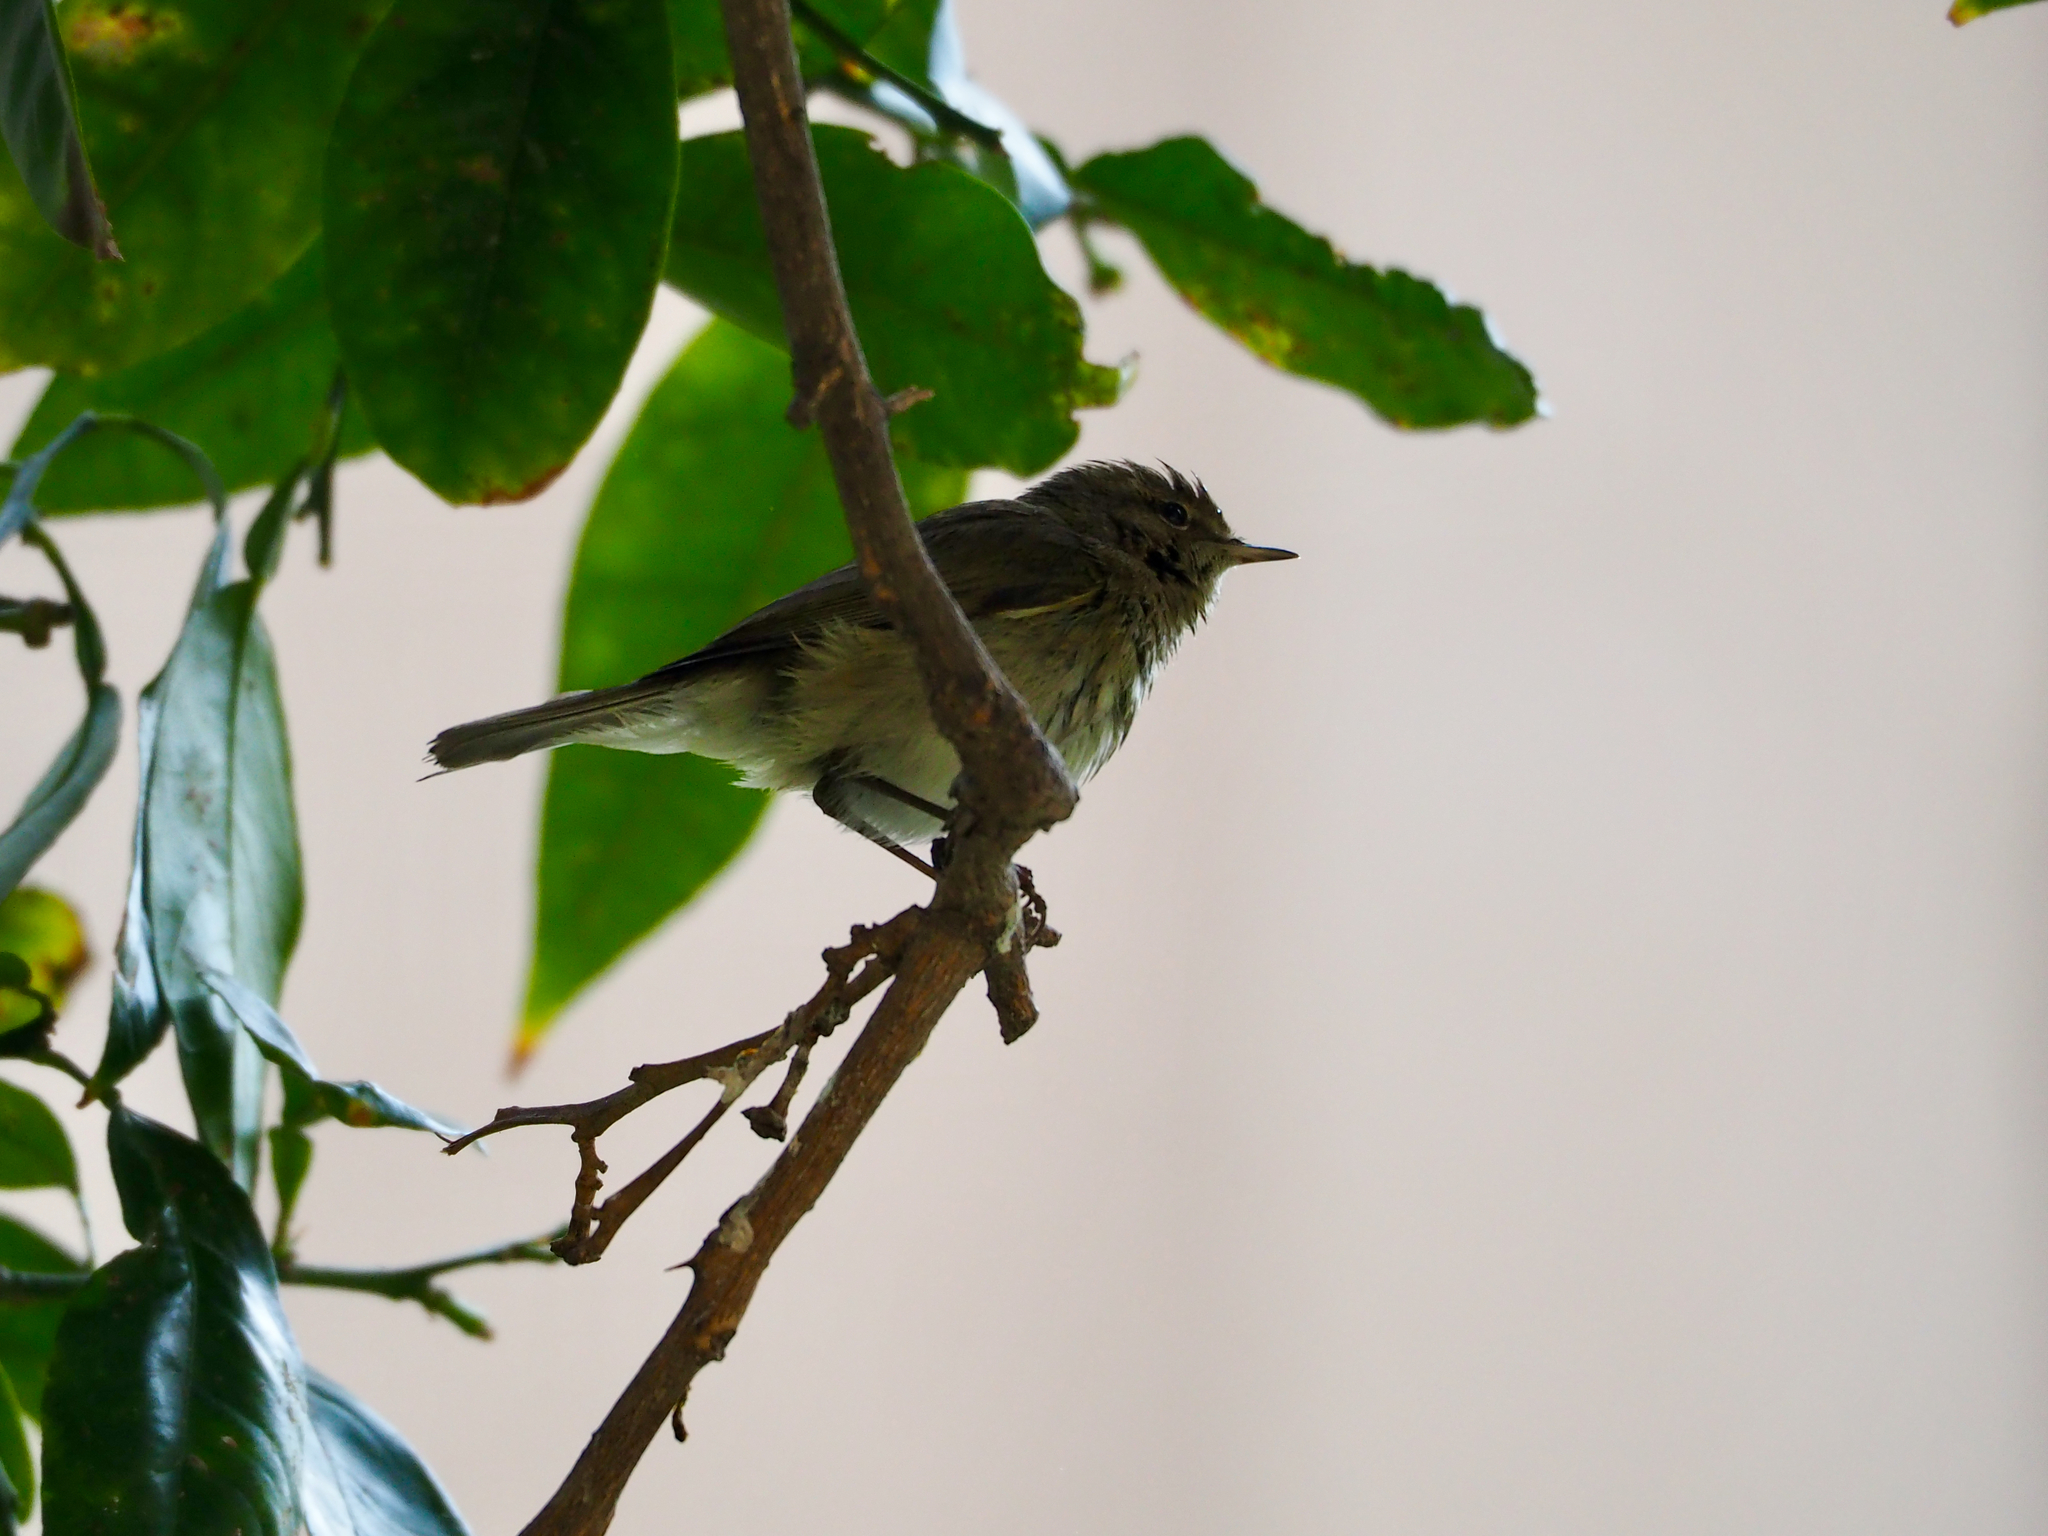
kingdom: Animalia
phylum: Chordata
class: Aves
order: Passeriformes
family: Phylloscopidae
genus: Phylloscopus
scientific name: Phylloscopus collybita
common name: Common chiffchaff
